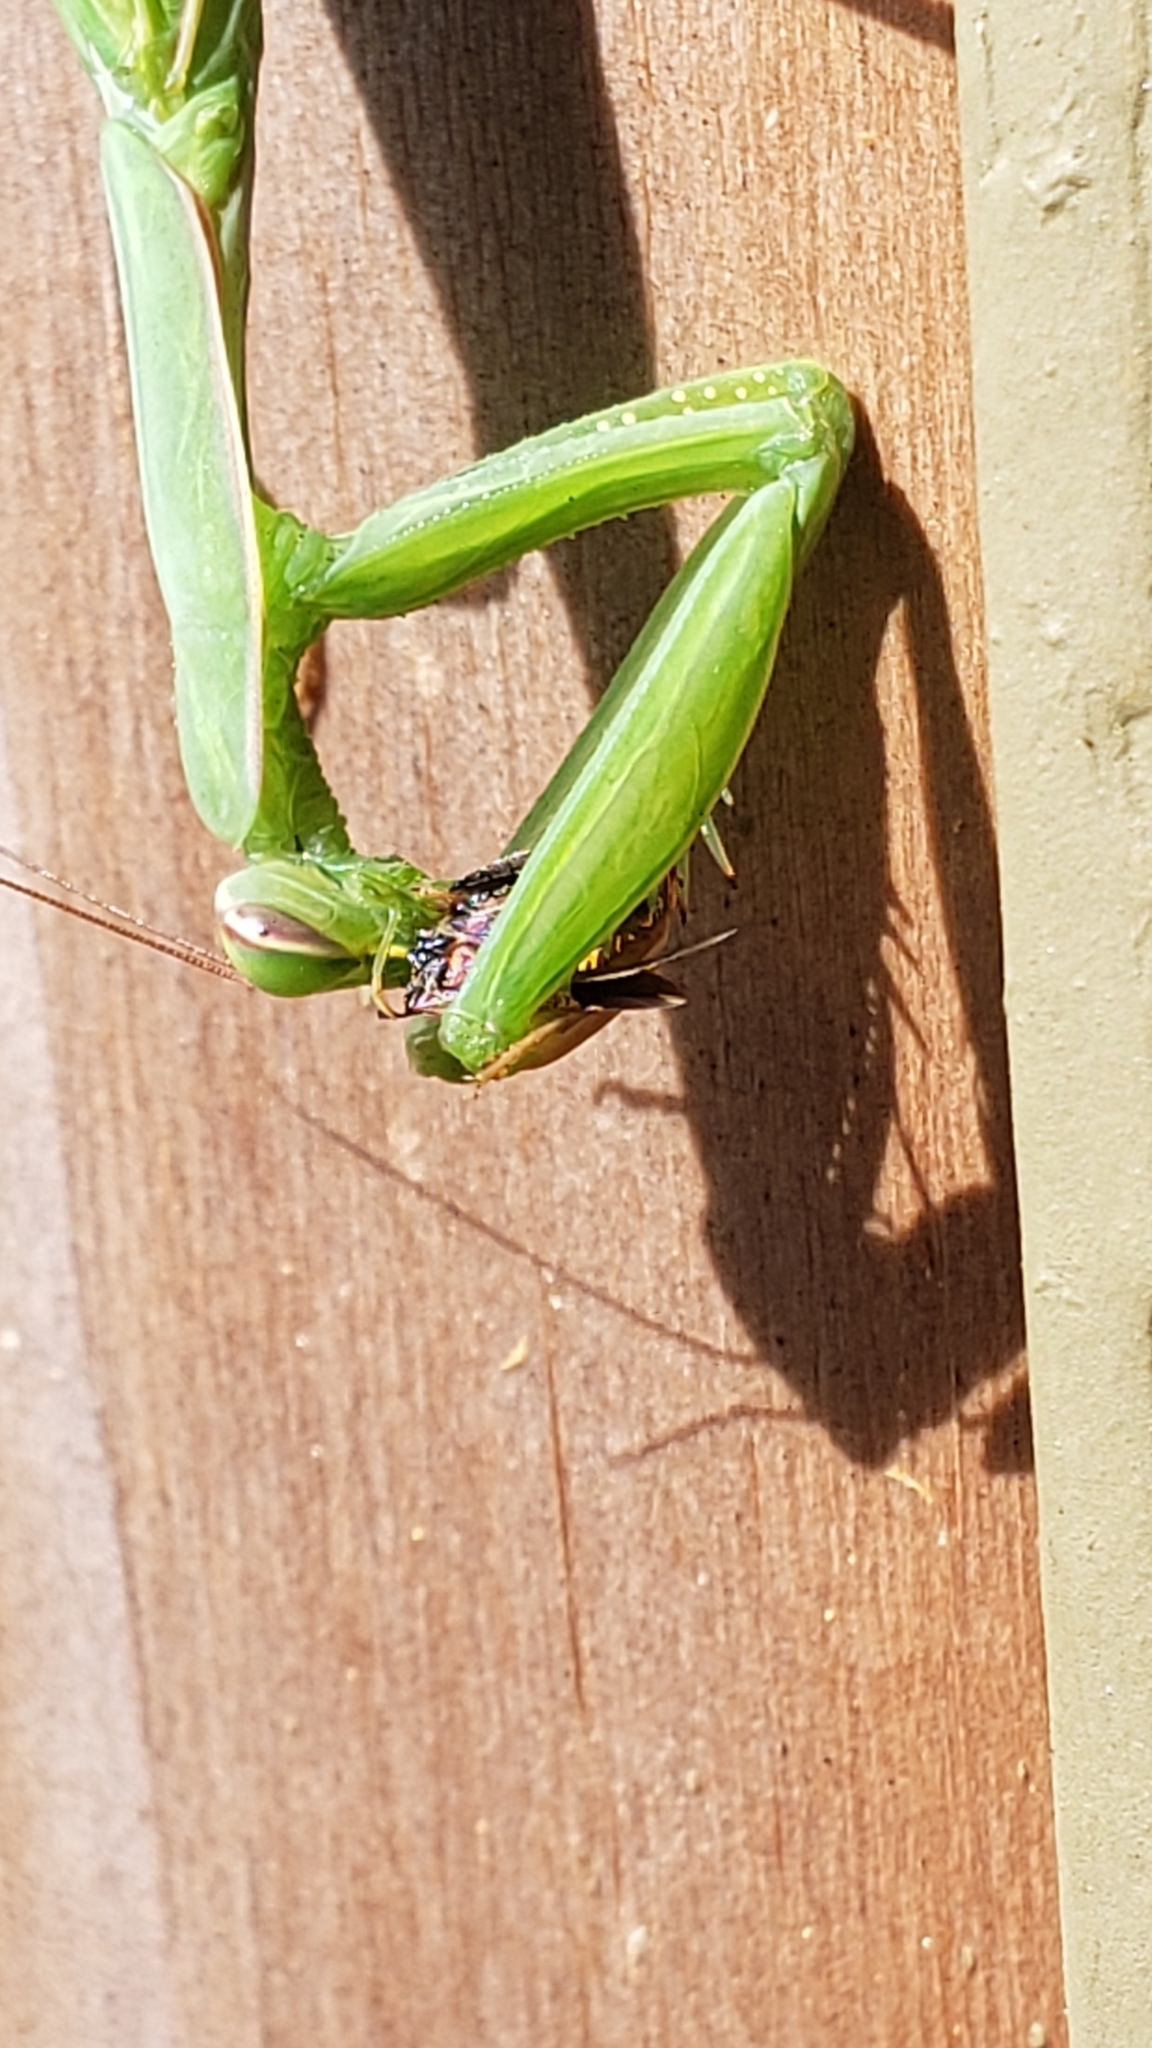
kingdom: Animalia
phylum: Arthropoda
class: Insecta
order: Mantodea
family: Mantidae
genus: Mantis
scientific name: Mantis religiosa
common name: Praying mantis
